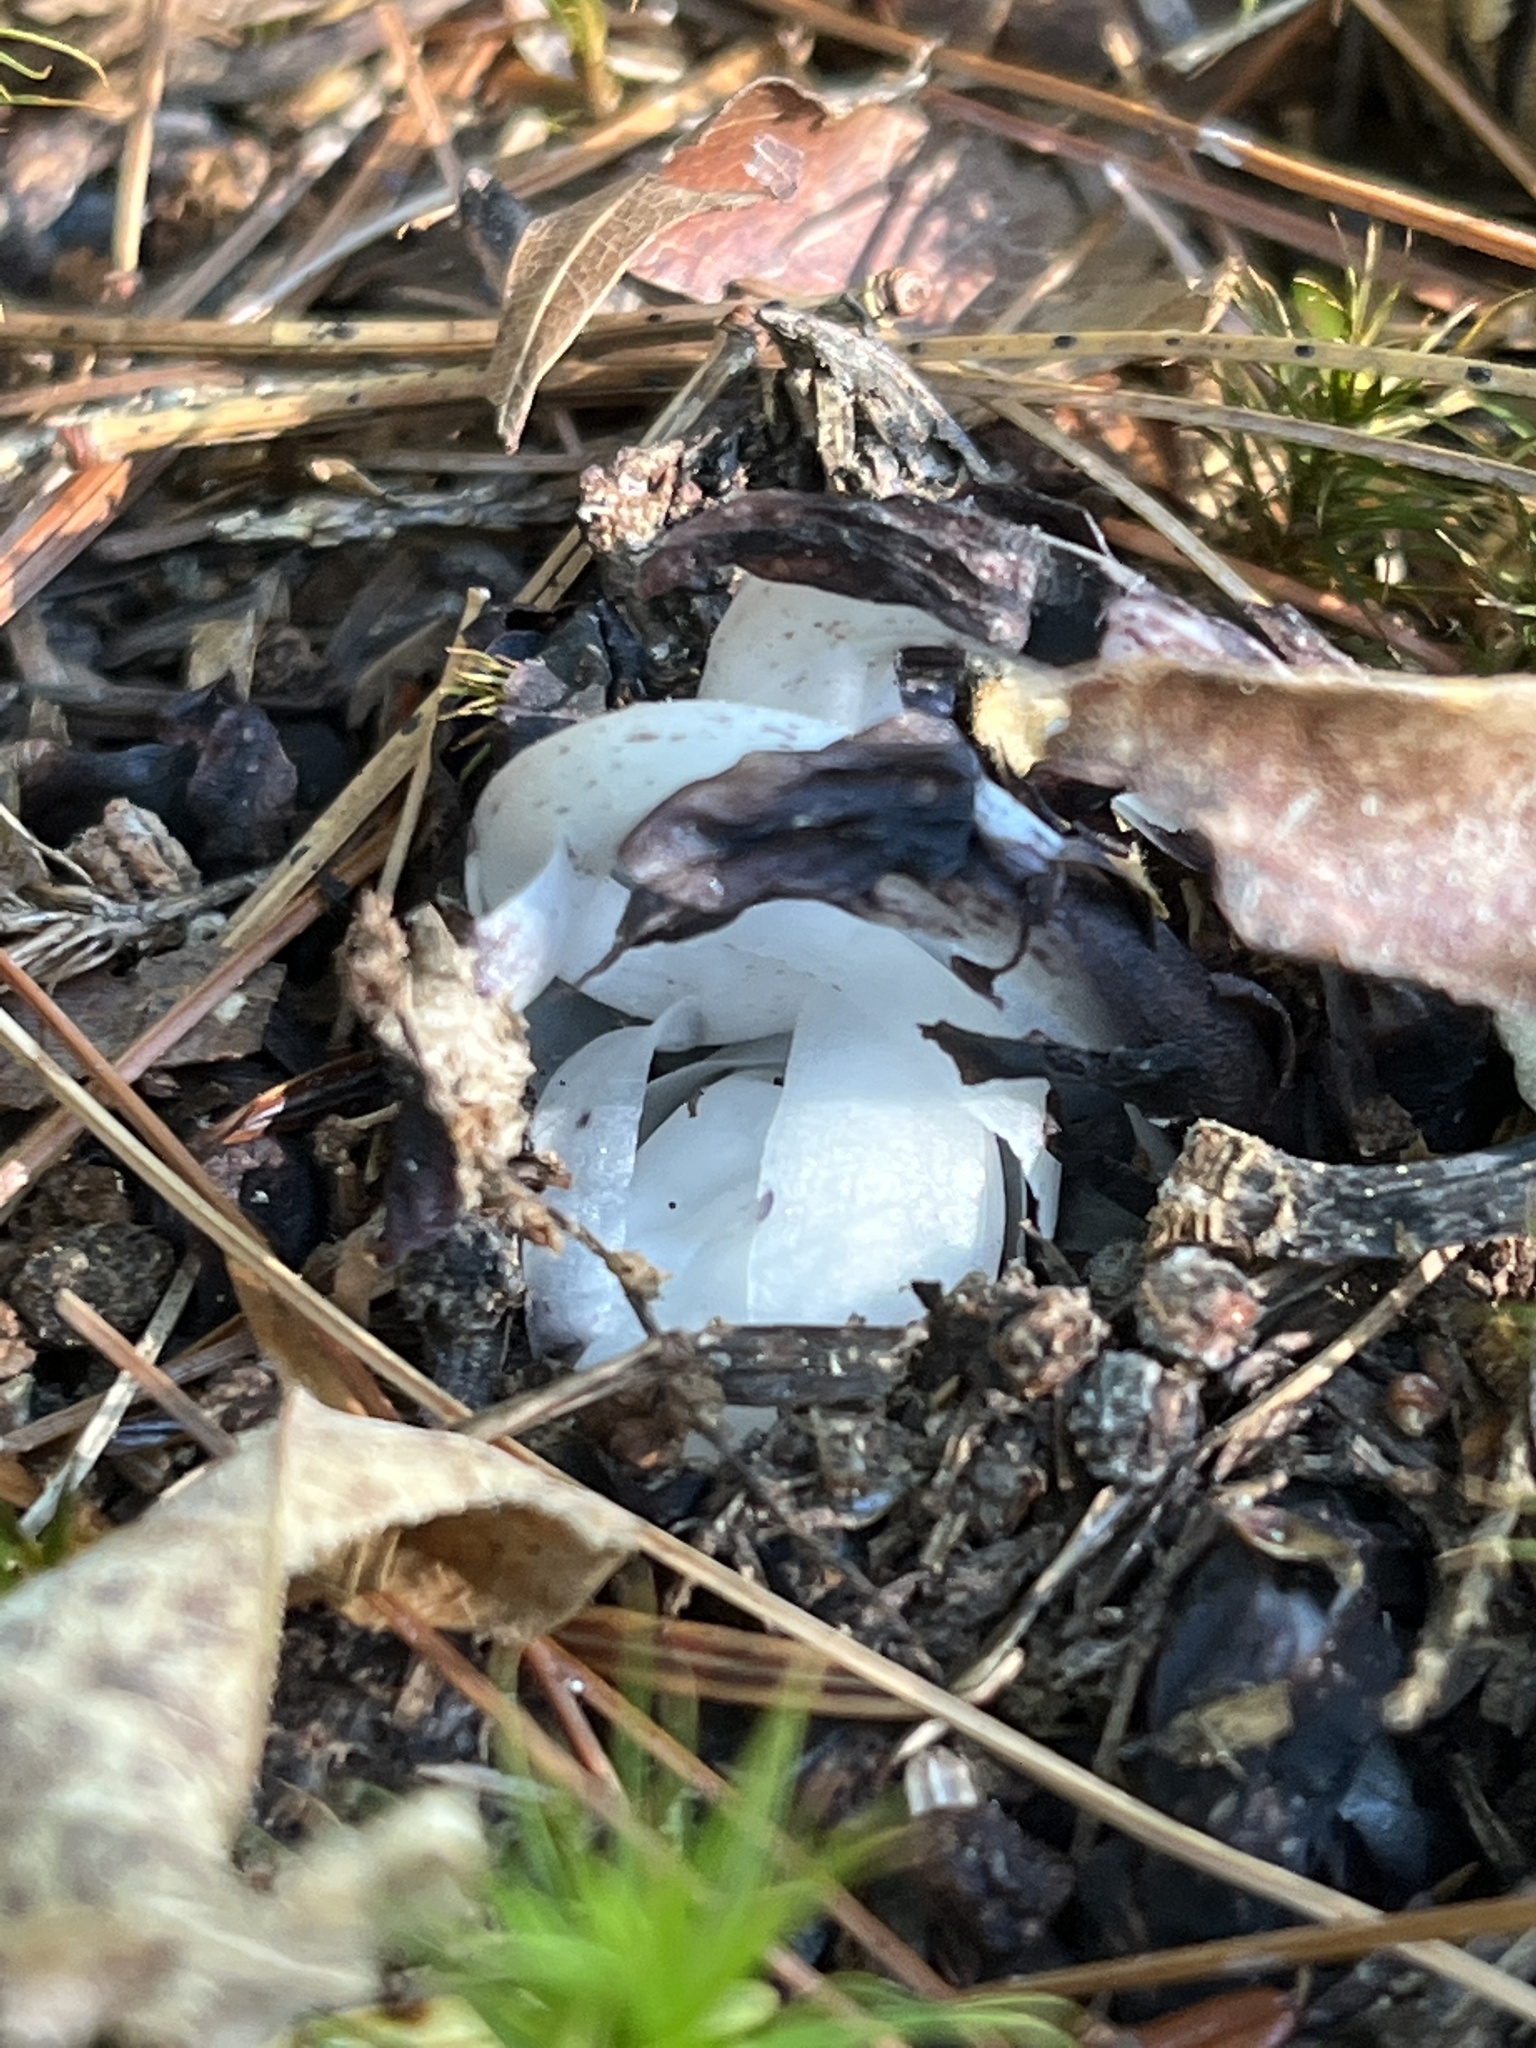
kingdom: Plantae
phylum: Tracheophyta
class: Magnoliopsida
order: Ericales
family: Ericaceae
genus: Monotropa
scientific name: Monotropa uniflora
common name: Convulsion root
